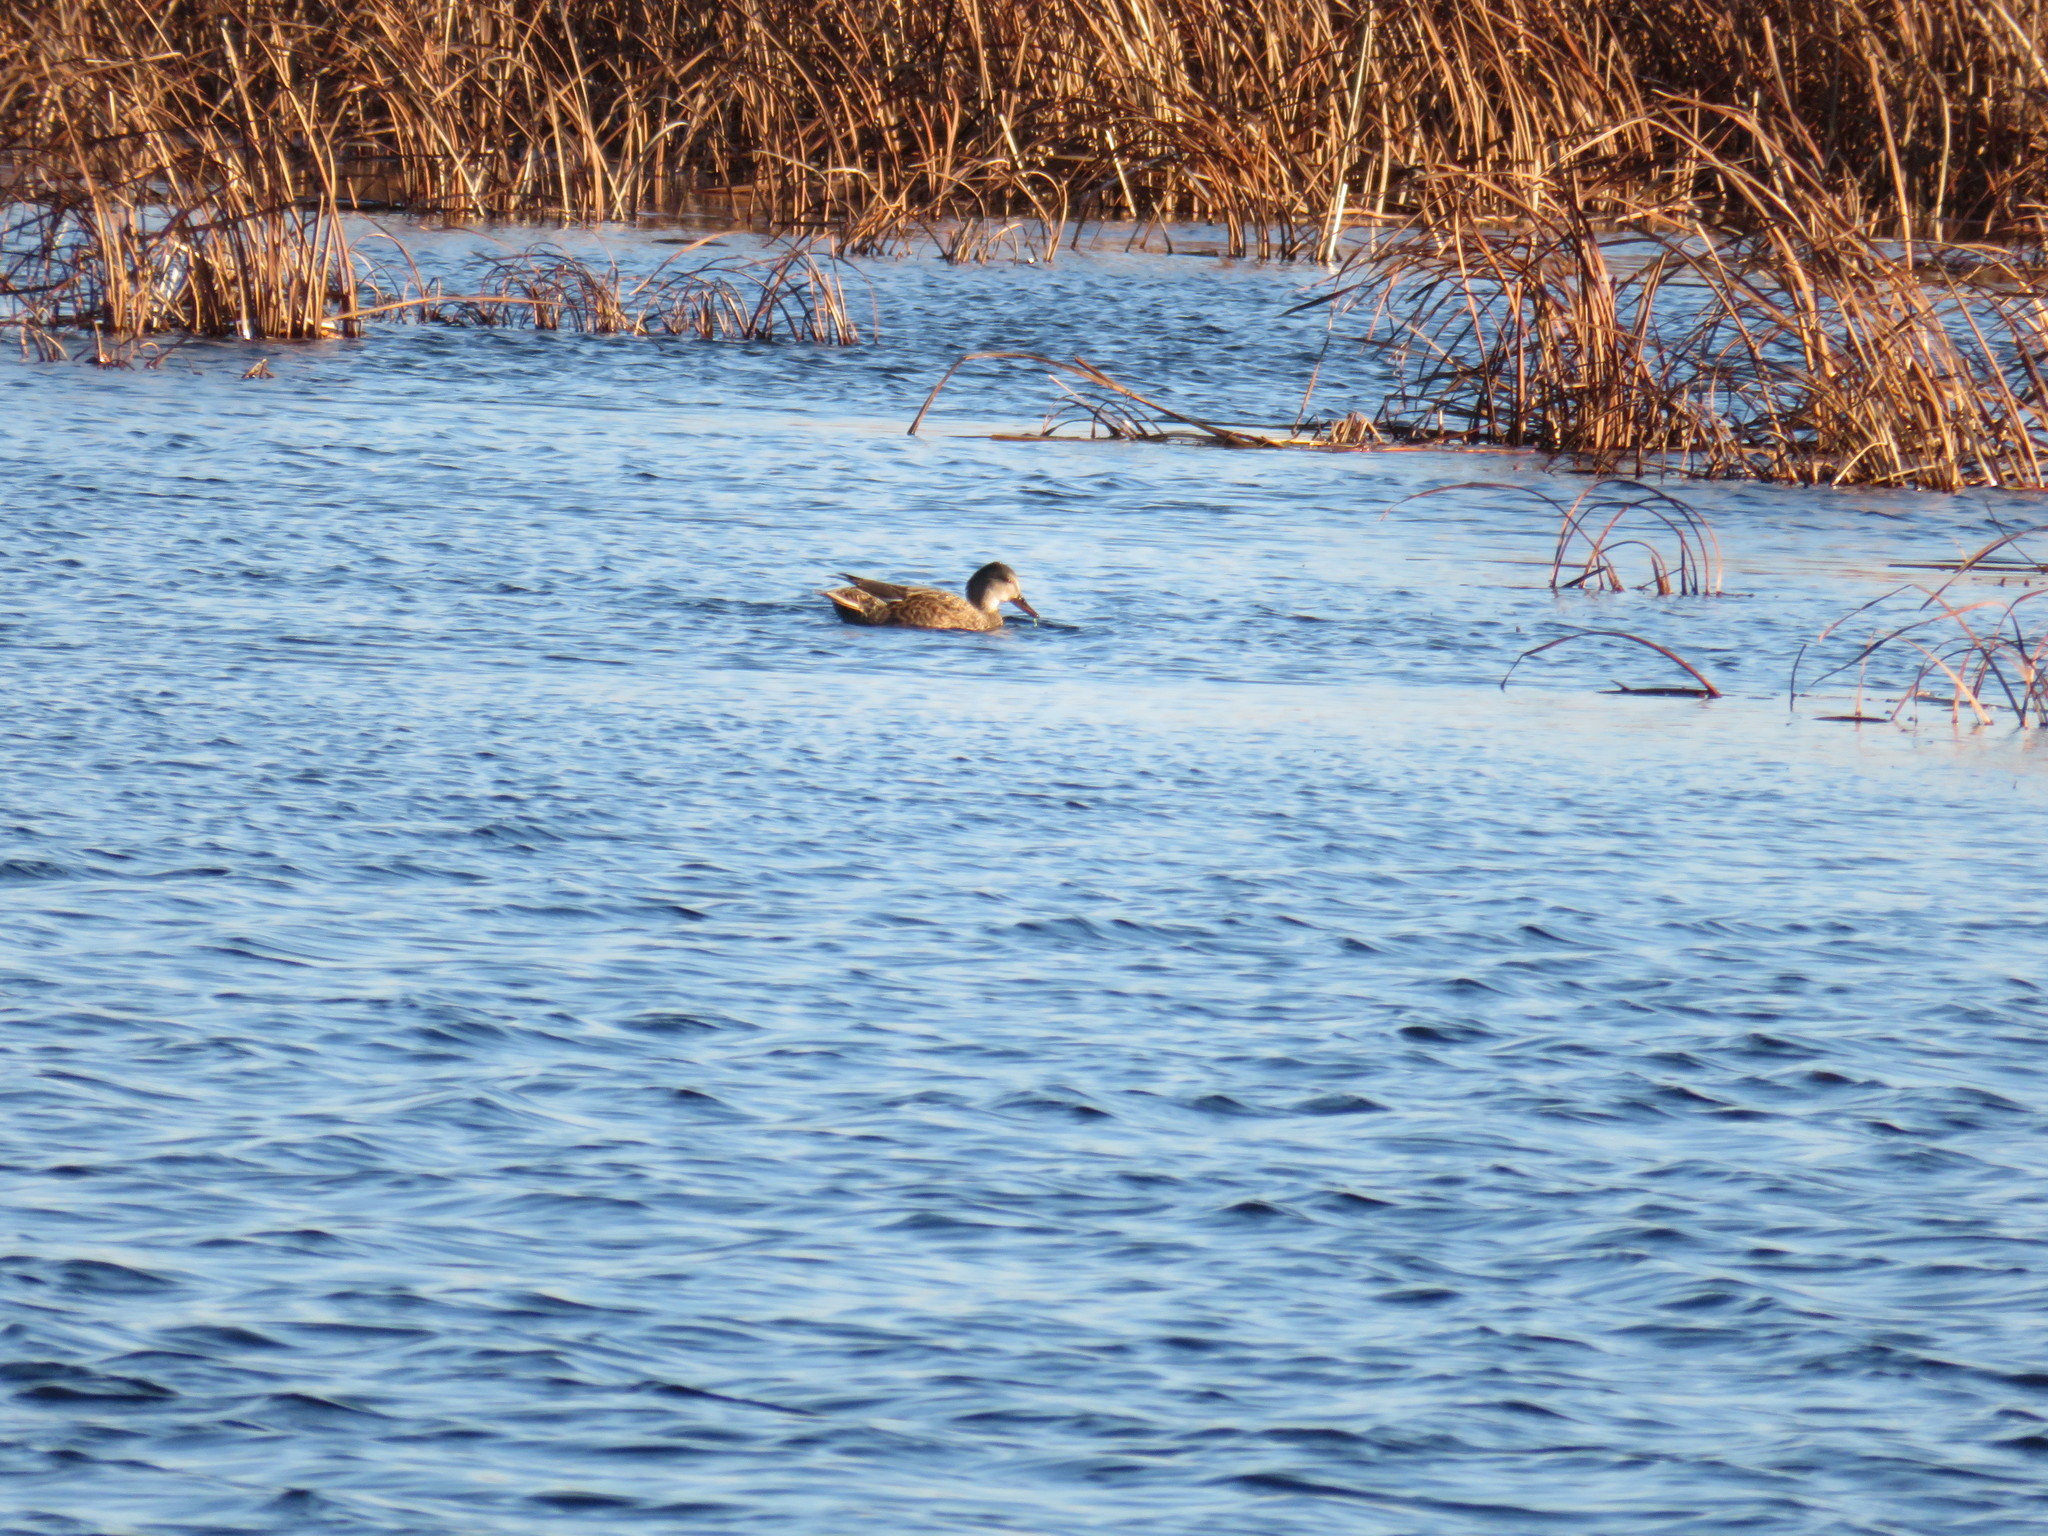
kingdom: Animalia
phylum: Chordata
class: Aves
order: Anseriformes
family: Anatidae
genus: Anas
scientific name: Anas platyrhynchos
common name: Mallard
